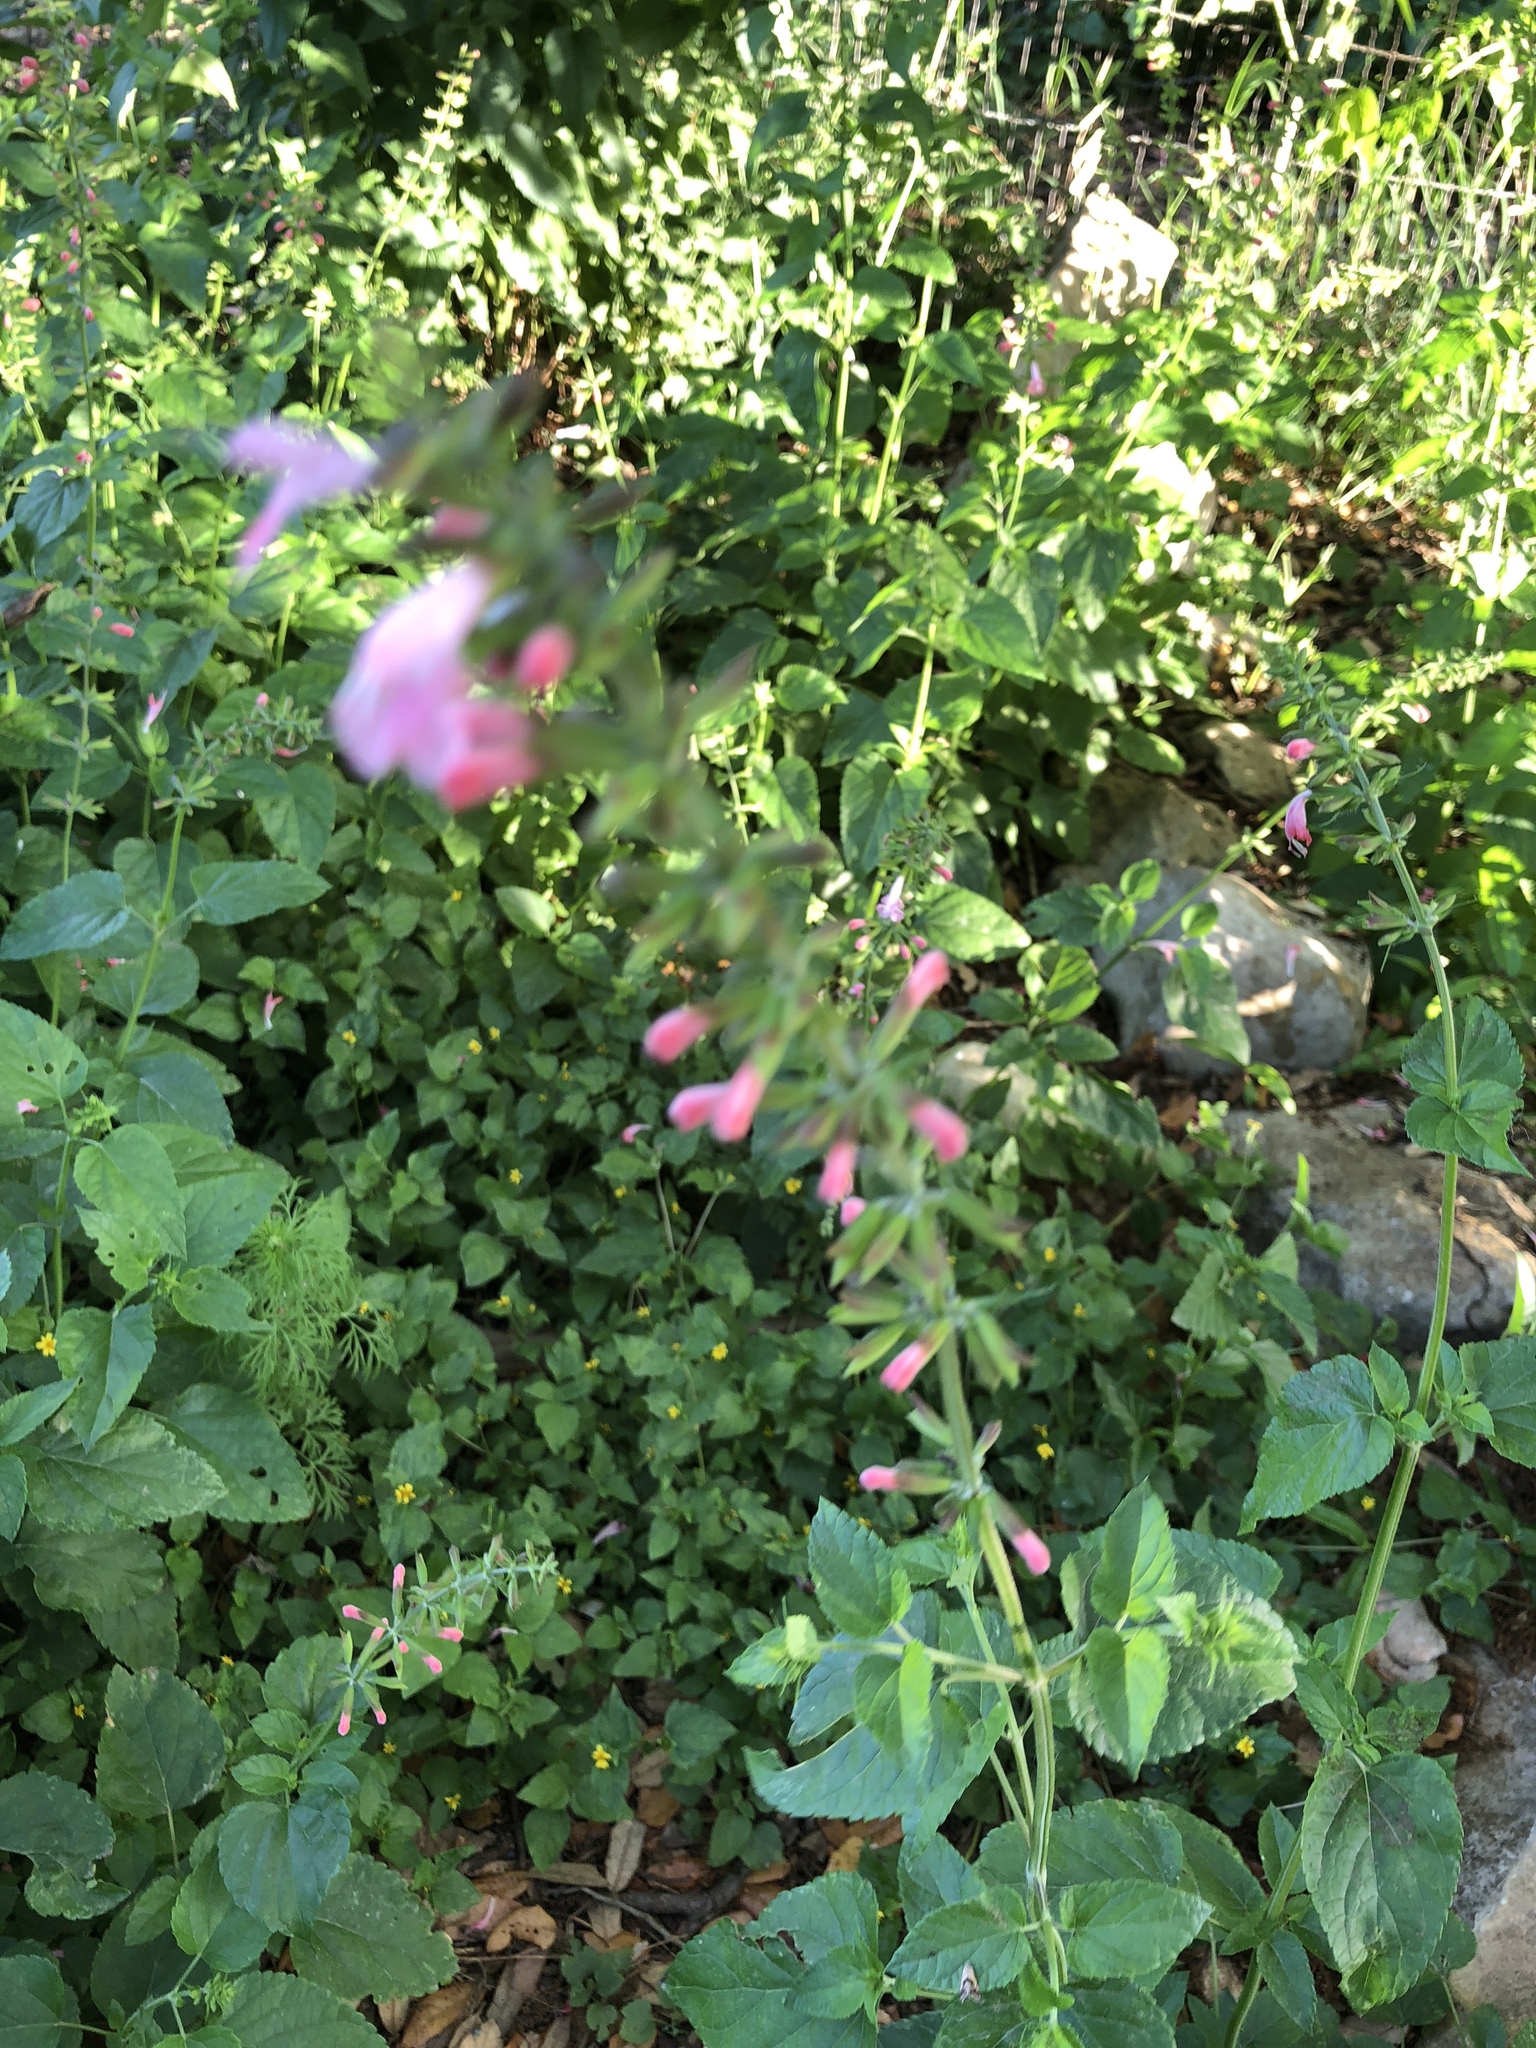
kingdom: Plantae
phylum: Tracheophyta
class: Magnoliopsida
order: Lamiales
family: Lamiaceae
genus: Salvia
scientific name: Salvia coccinea
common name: Blood sage
